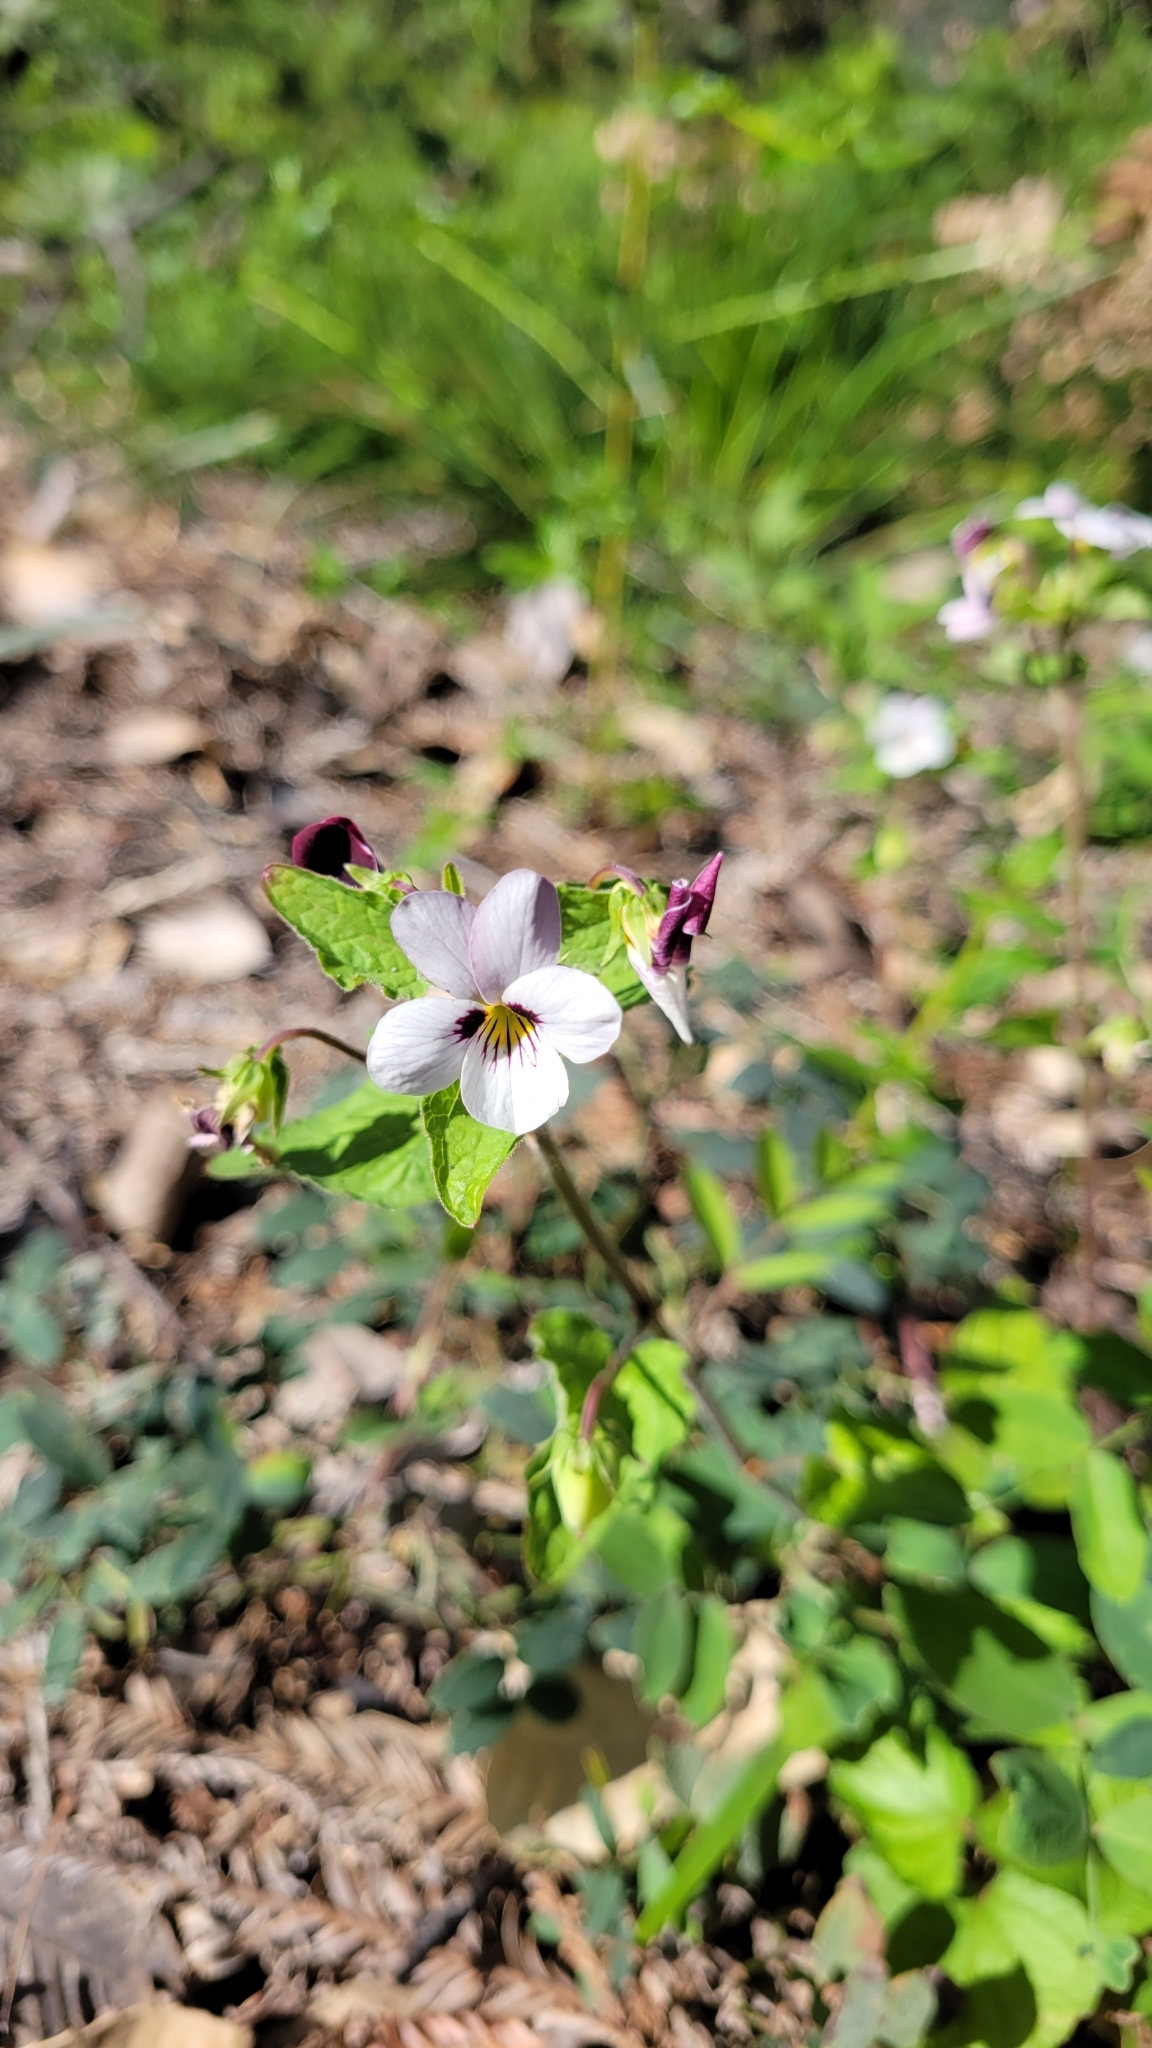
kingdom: Plantae
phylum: Tracheophyta
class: Magnoliopsida
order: Malpighiales
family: Violaceae
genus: Viola
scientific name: Viola ocellata
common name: Western heart's ease
